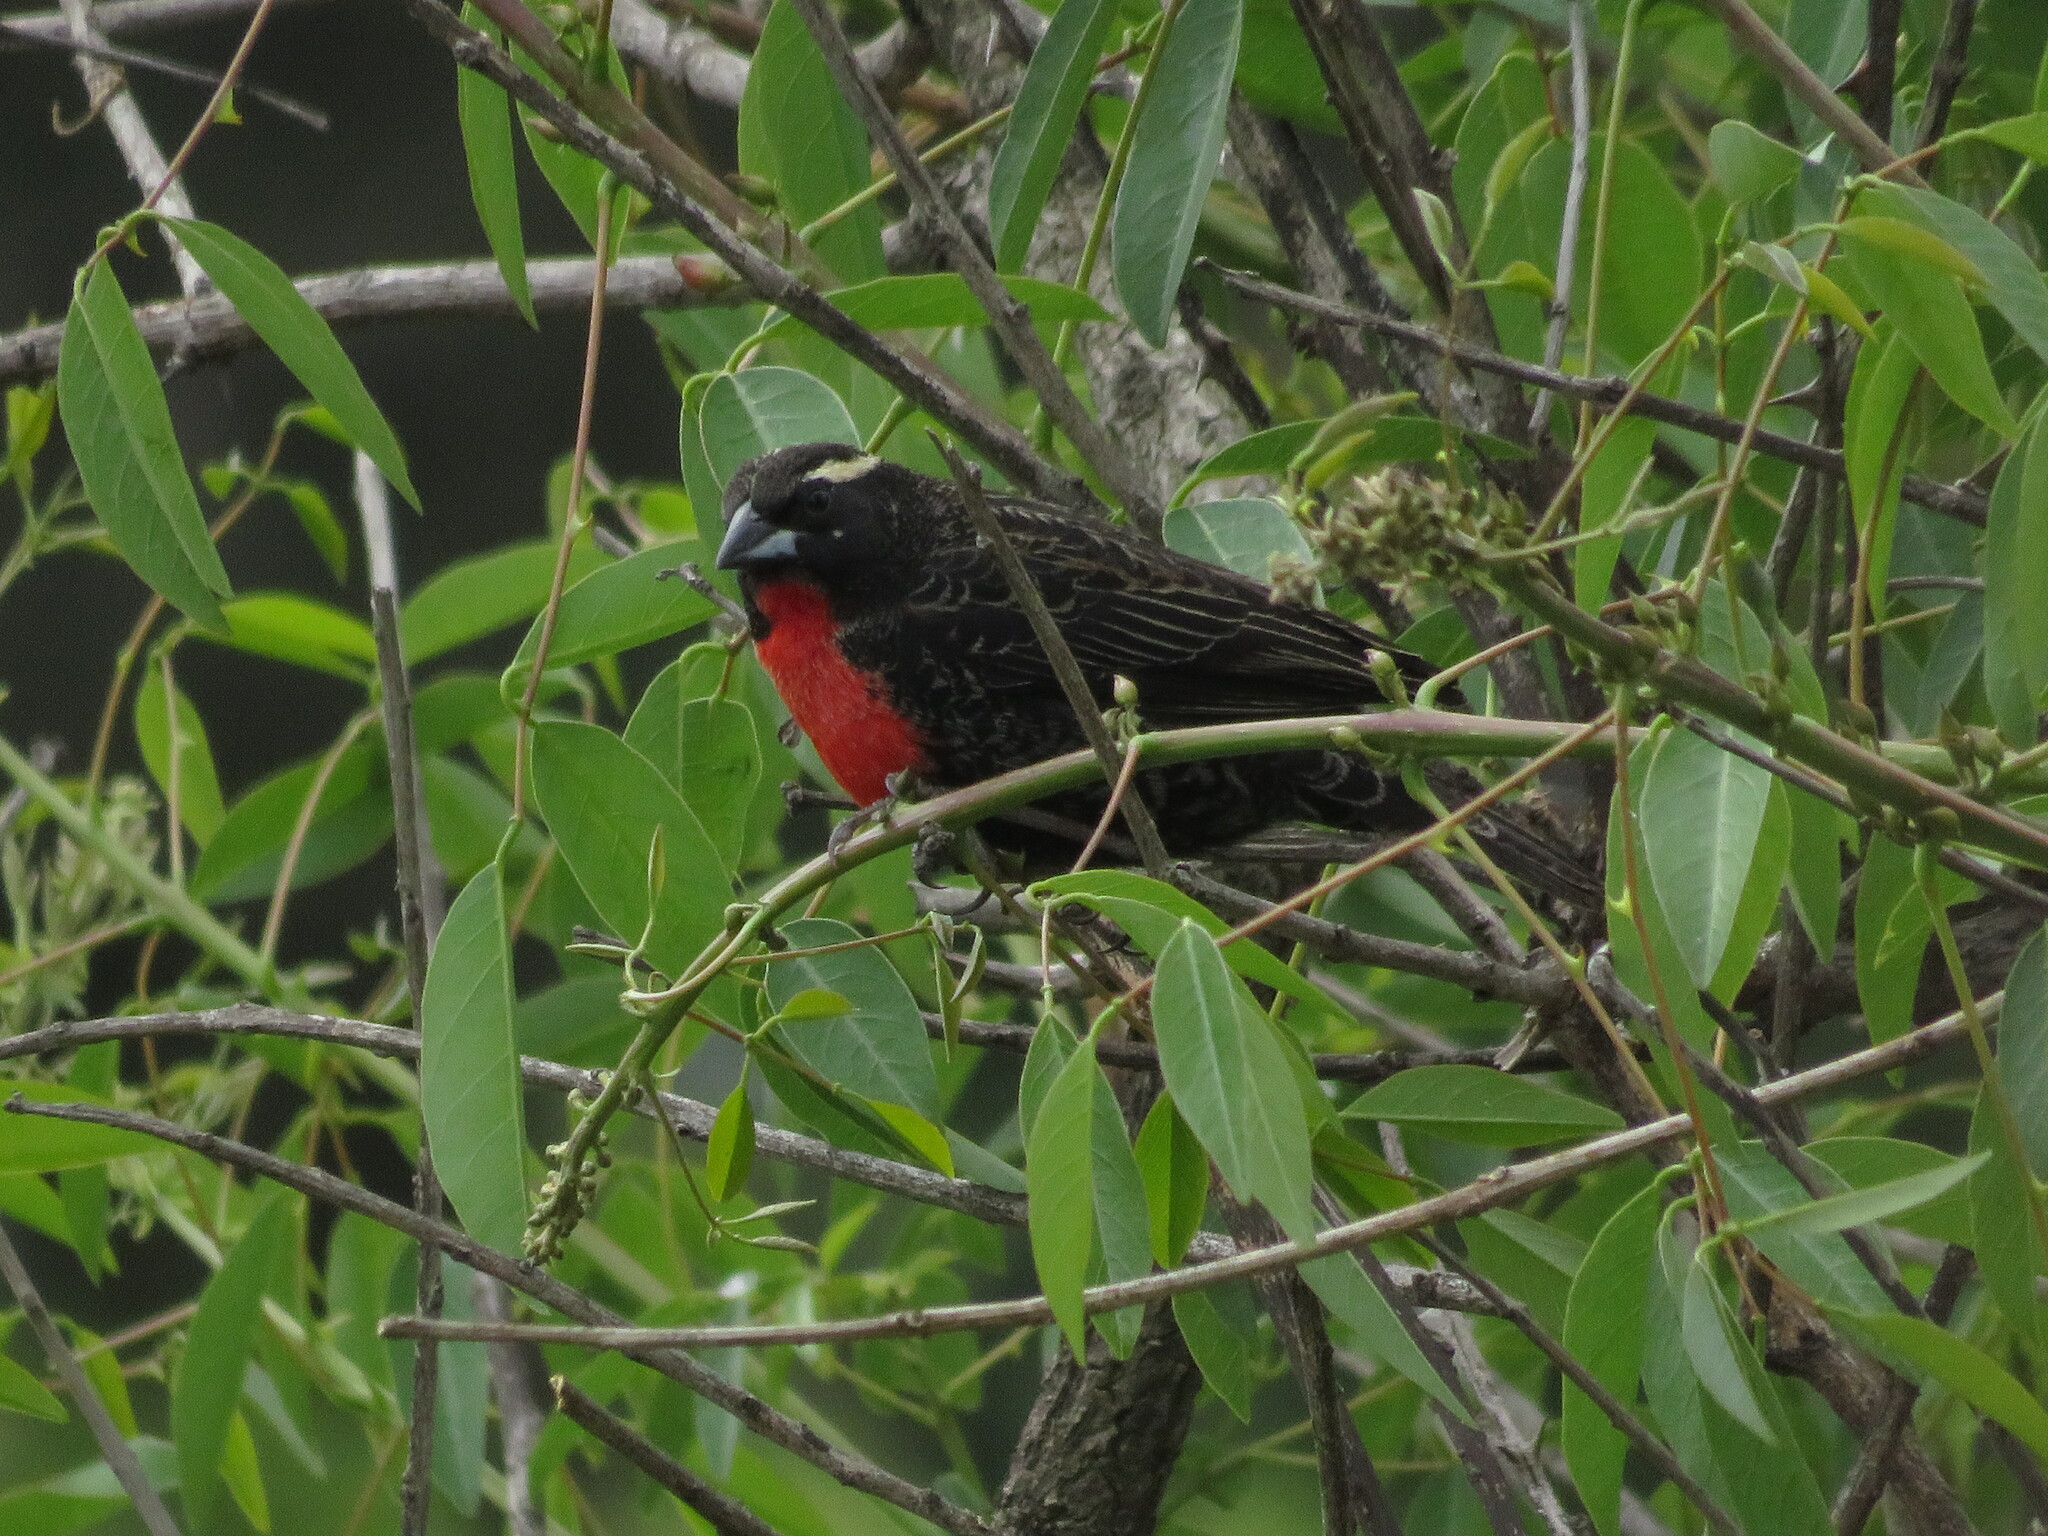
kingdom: Animalia
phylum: Chordata
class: Aves
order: Passeriformes
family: Icteridae
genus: Sturnella
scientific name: Sturnella superciliaris
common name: White-browed blackbird
